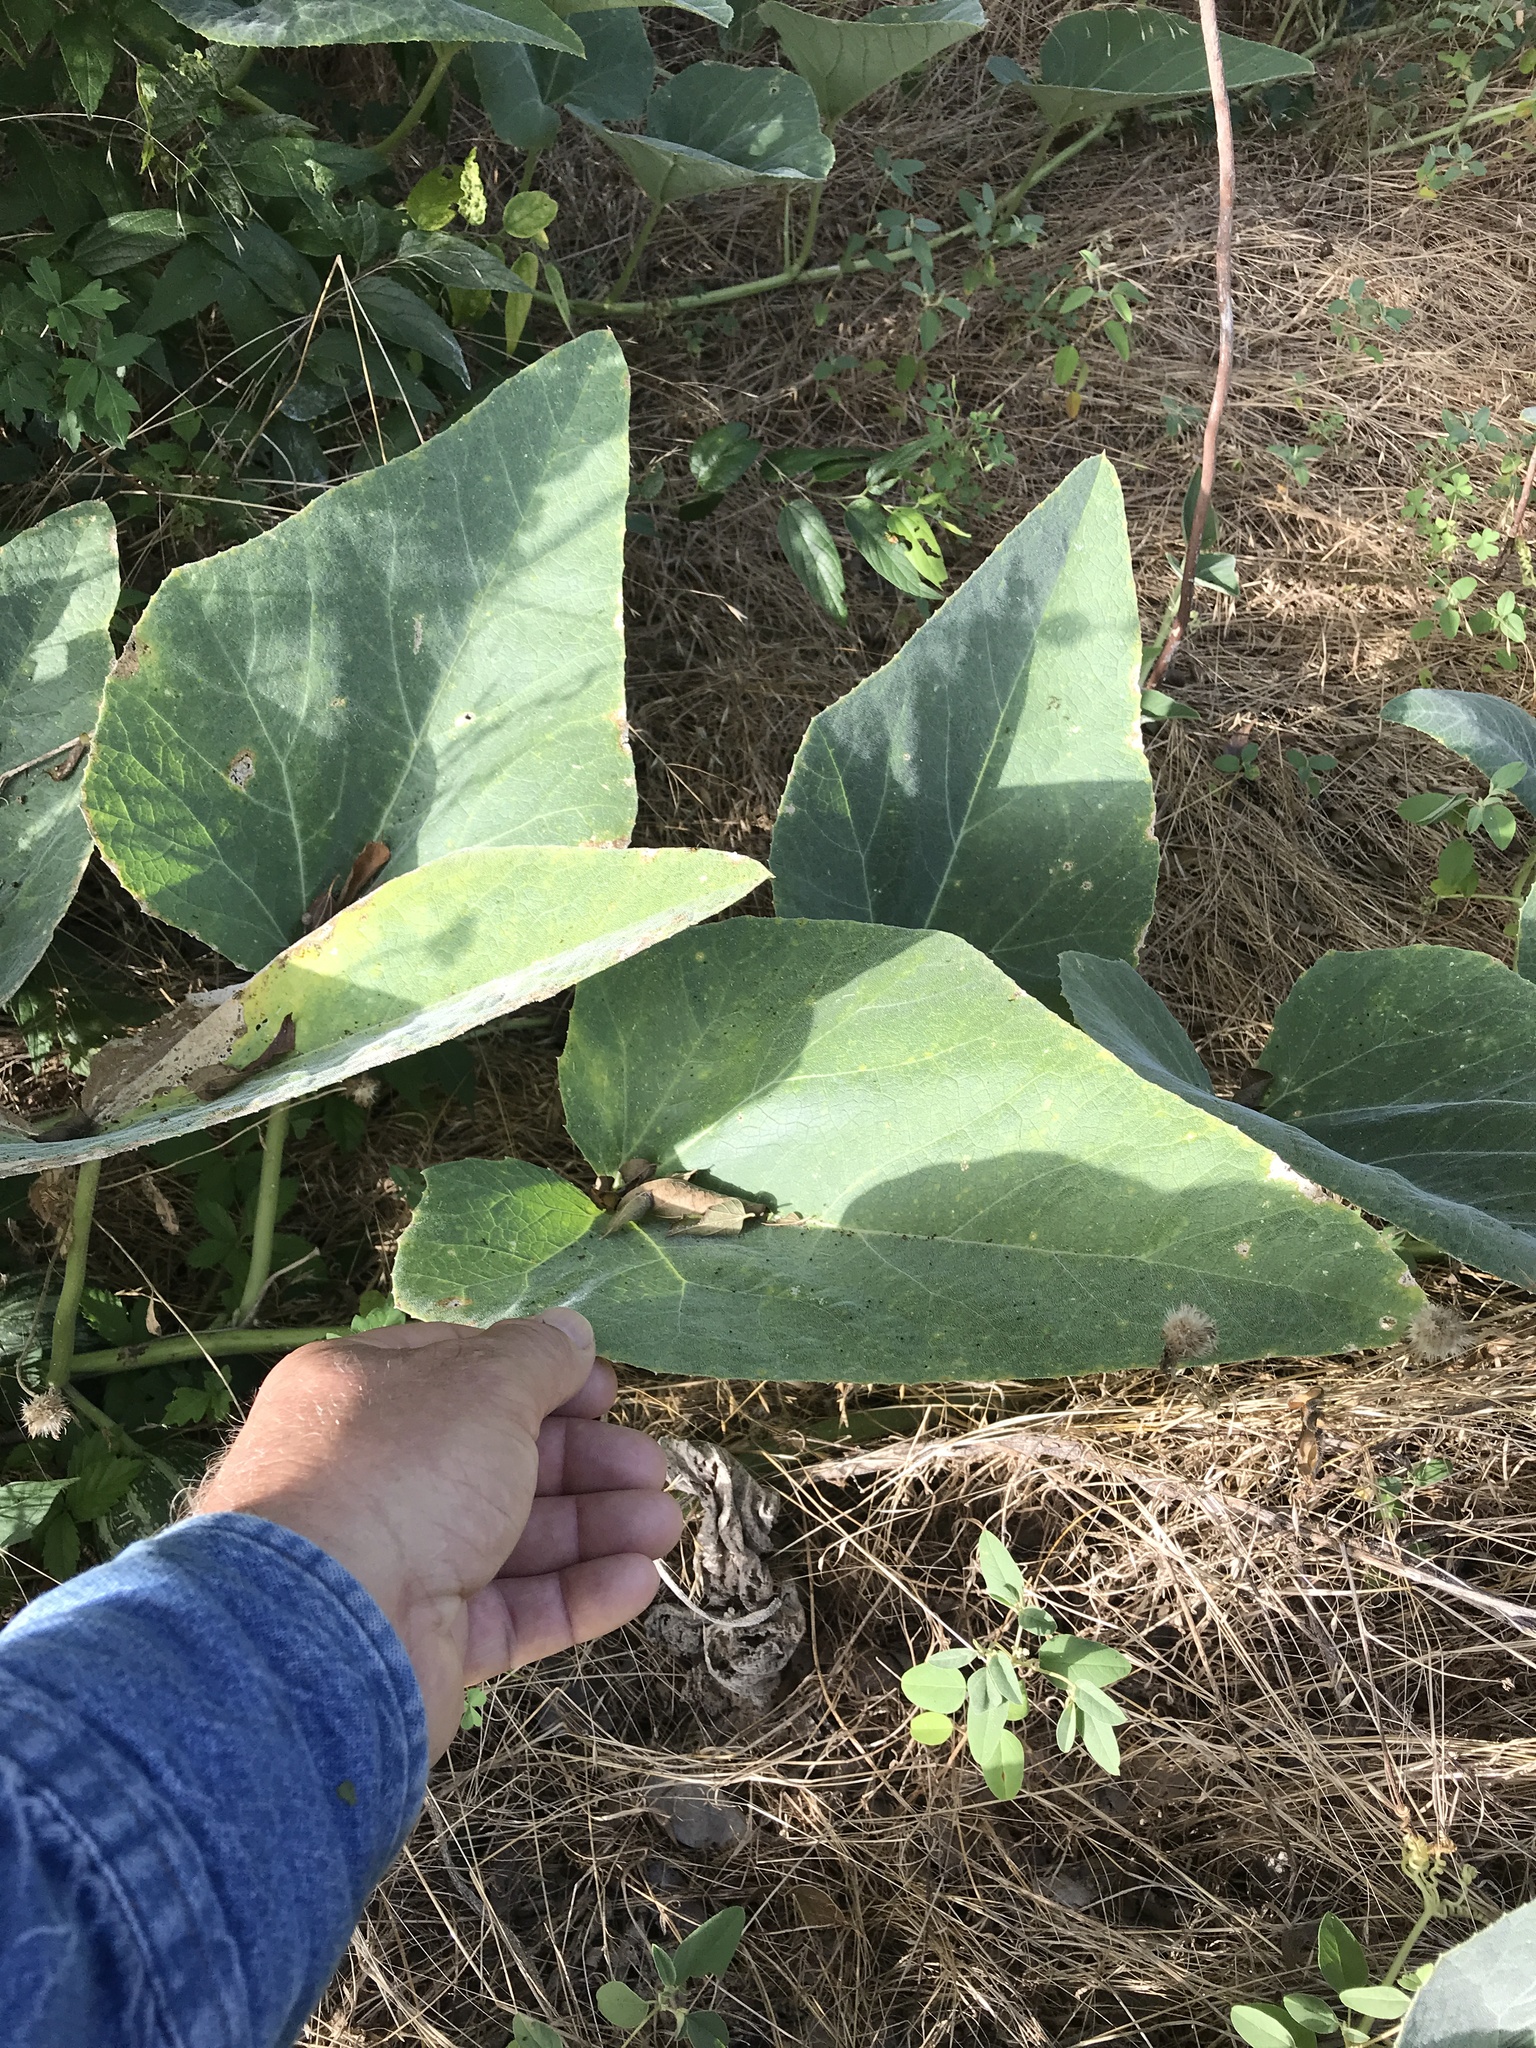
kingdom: Plantae
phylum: Tracheophyta
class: Magnoliopsida
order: Cucurbitales
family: Cucurbitaceae
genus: Cucurbita
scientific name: Cucurbita foetidissima
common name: Buffalo gourd
